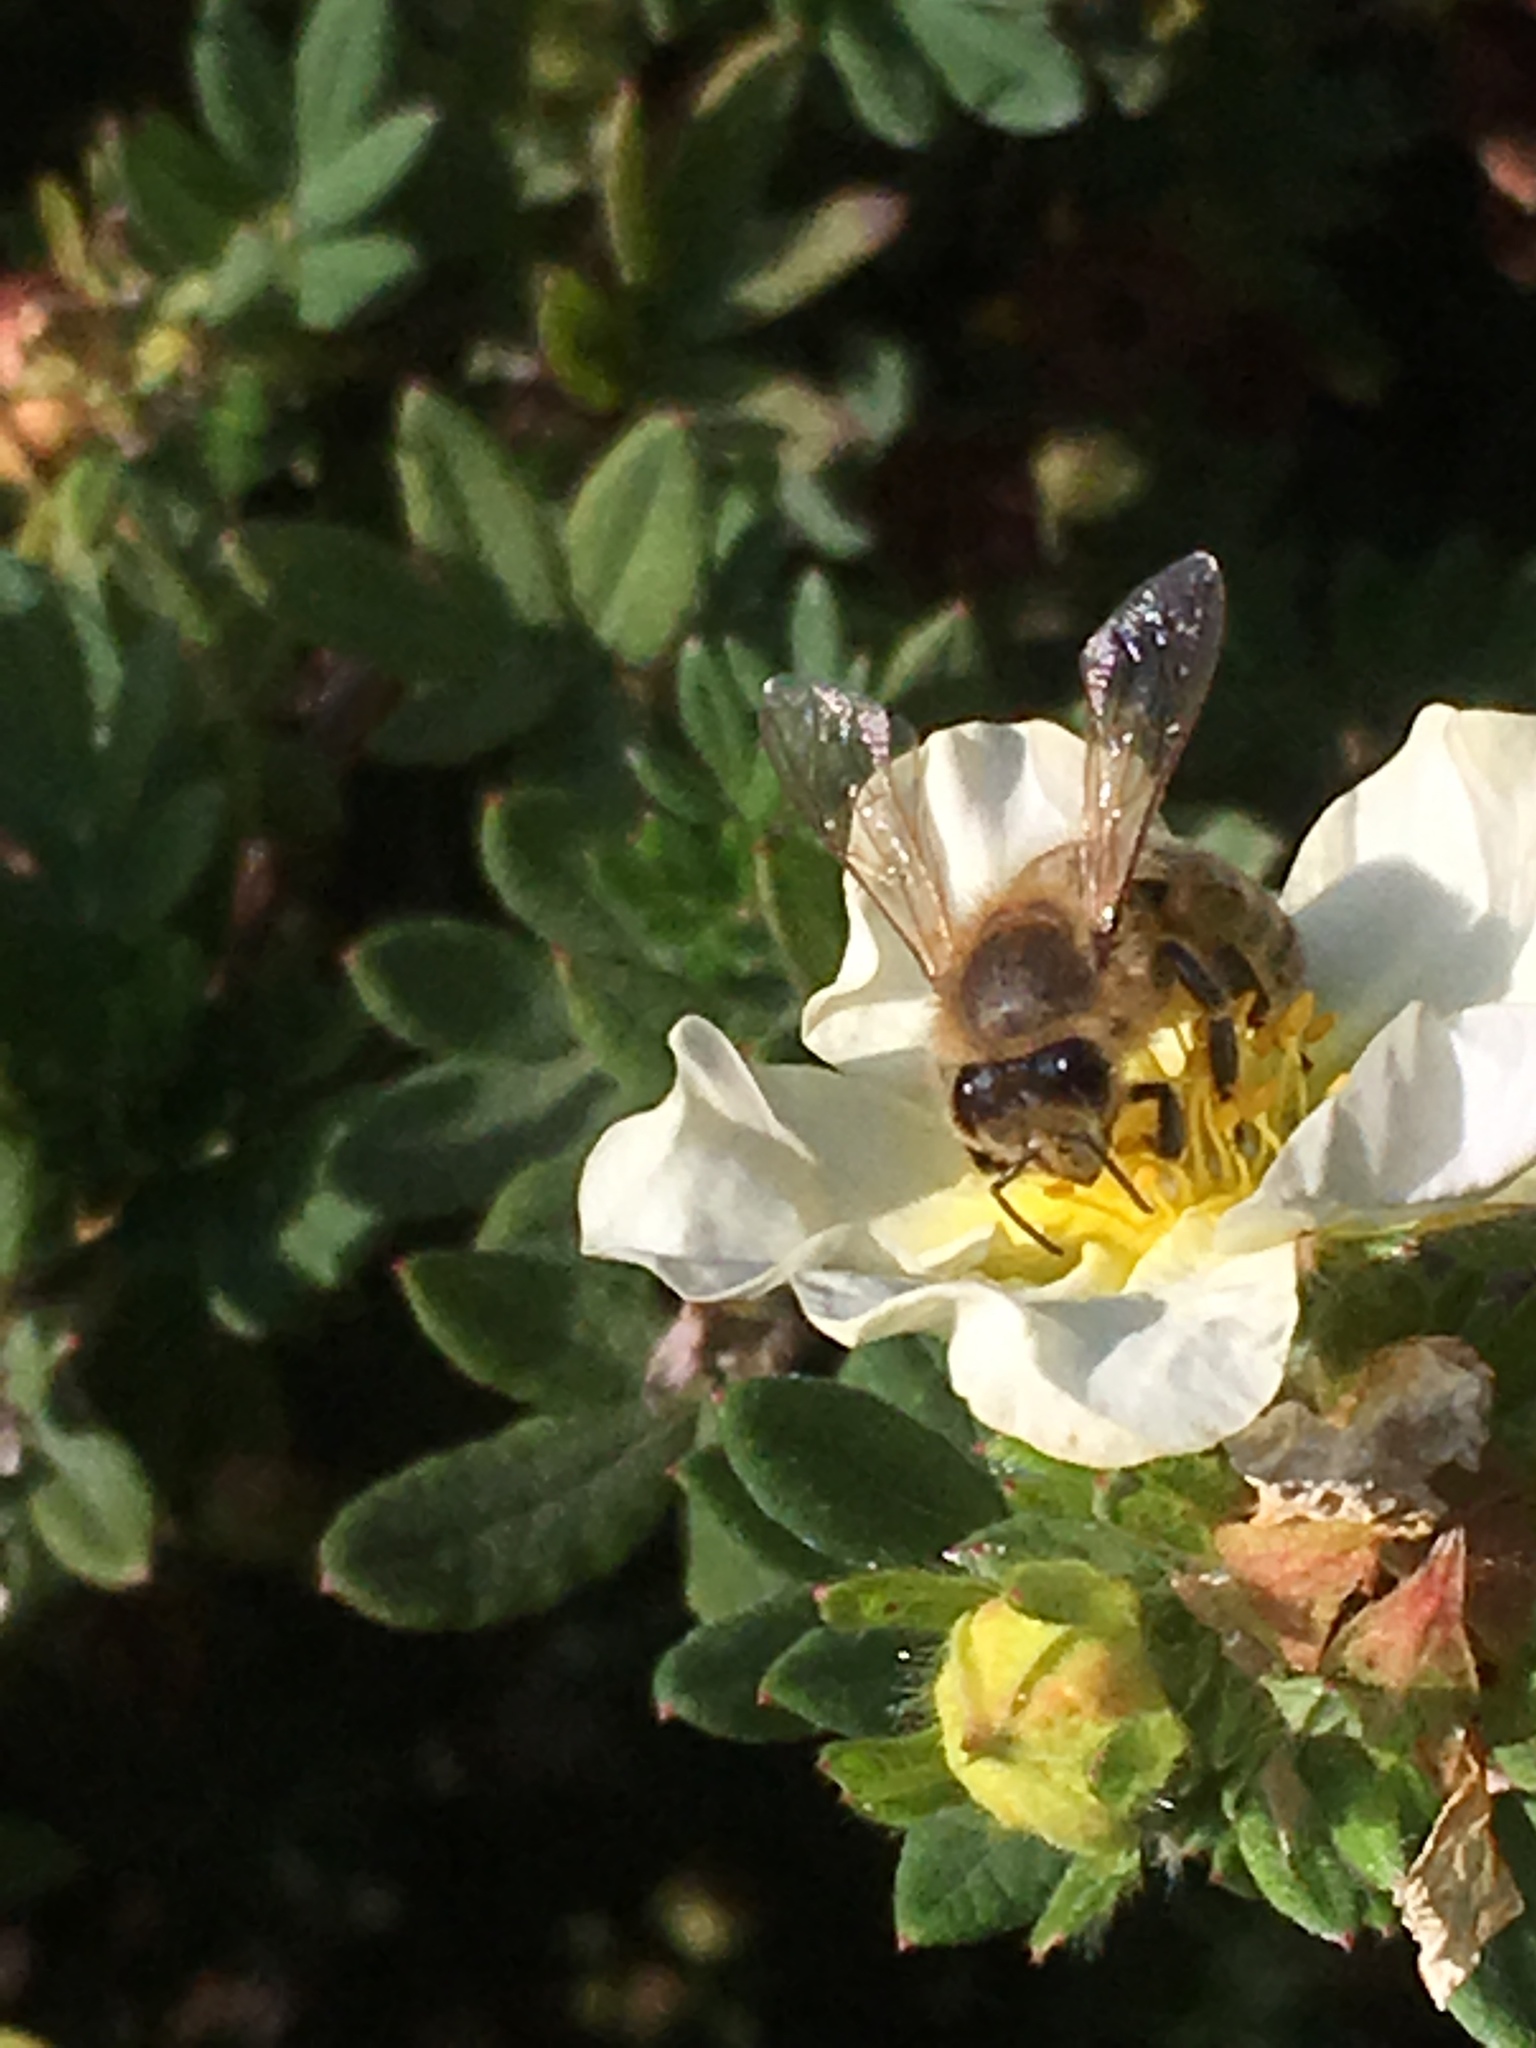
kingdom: Animalia
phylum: Arthropoda
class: Insecta
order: Hymenoptera
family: Apidae
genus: Apis
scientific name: Apis mellifera
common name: Honey bee
